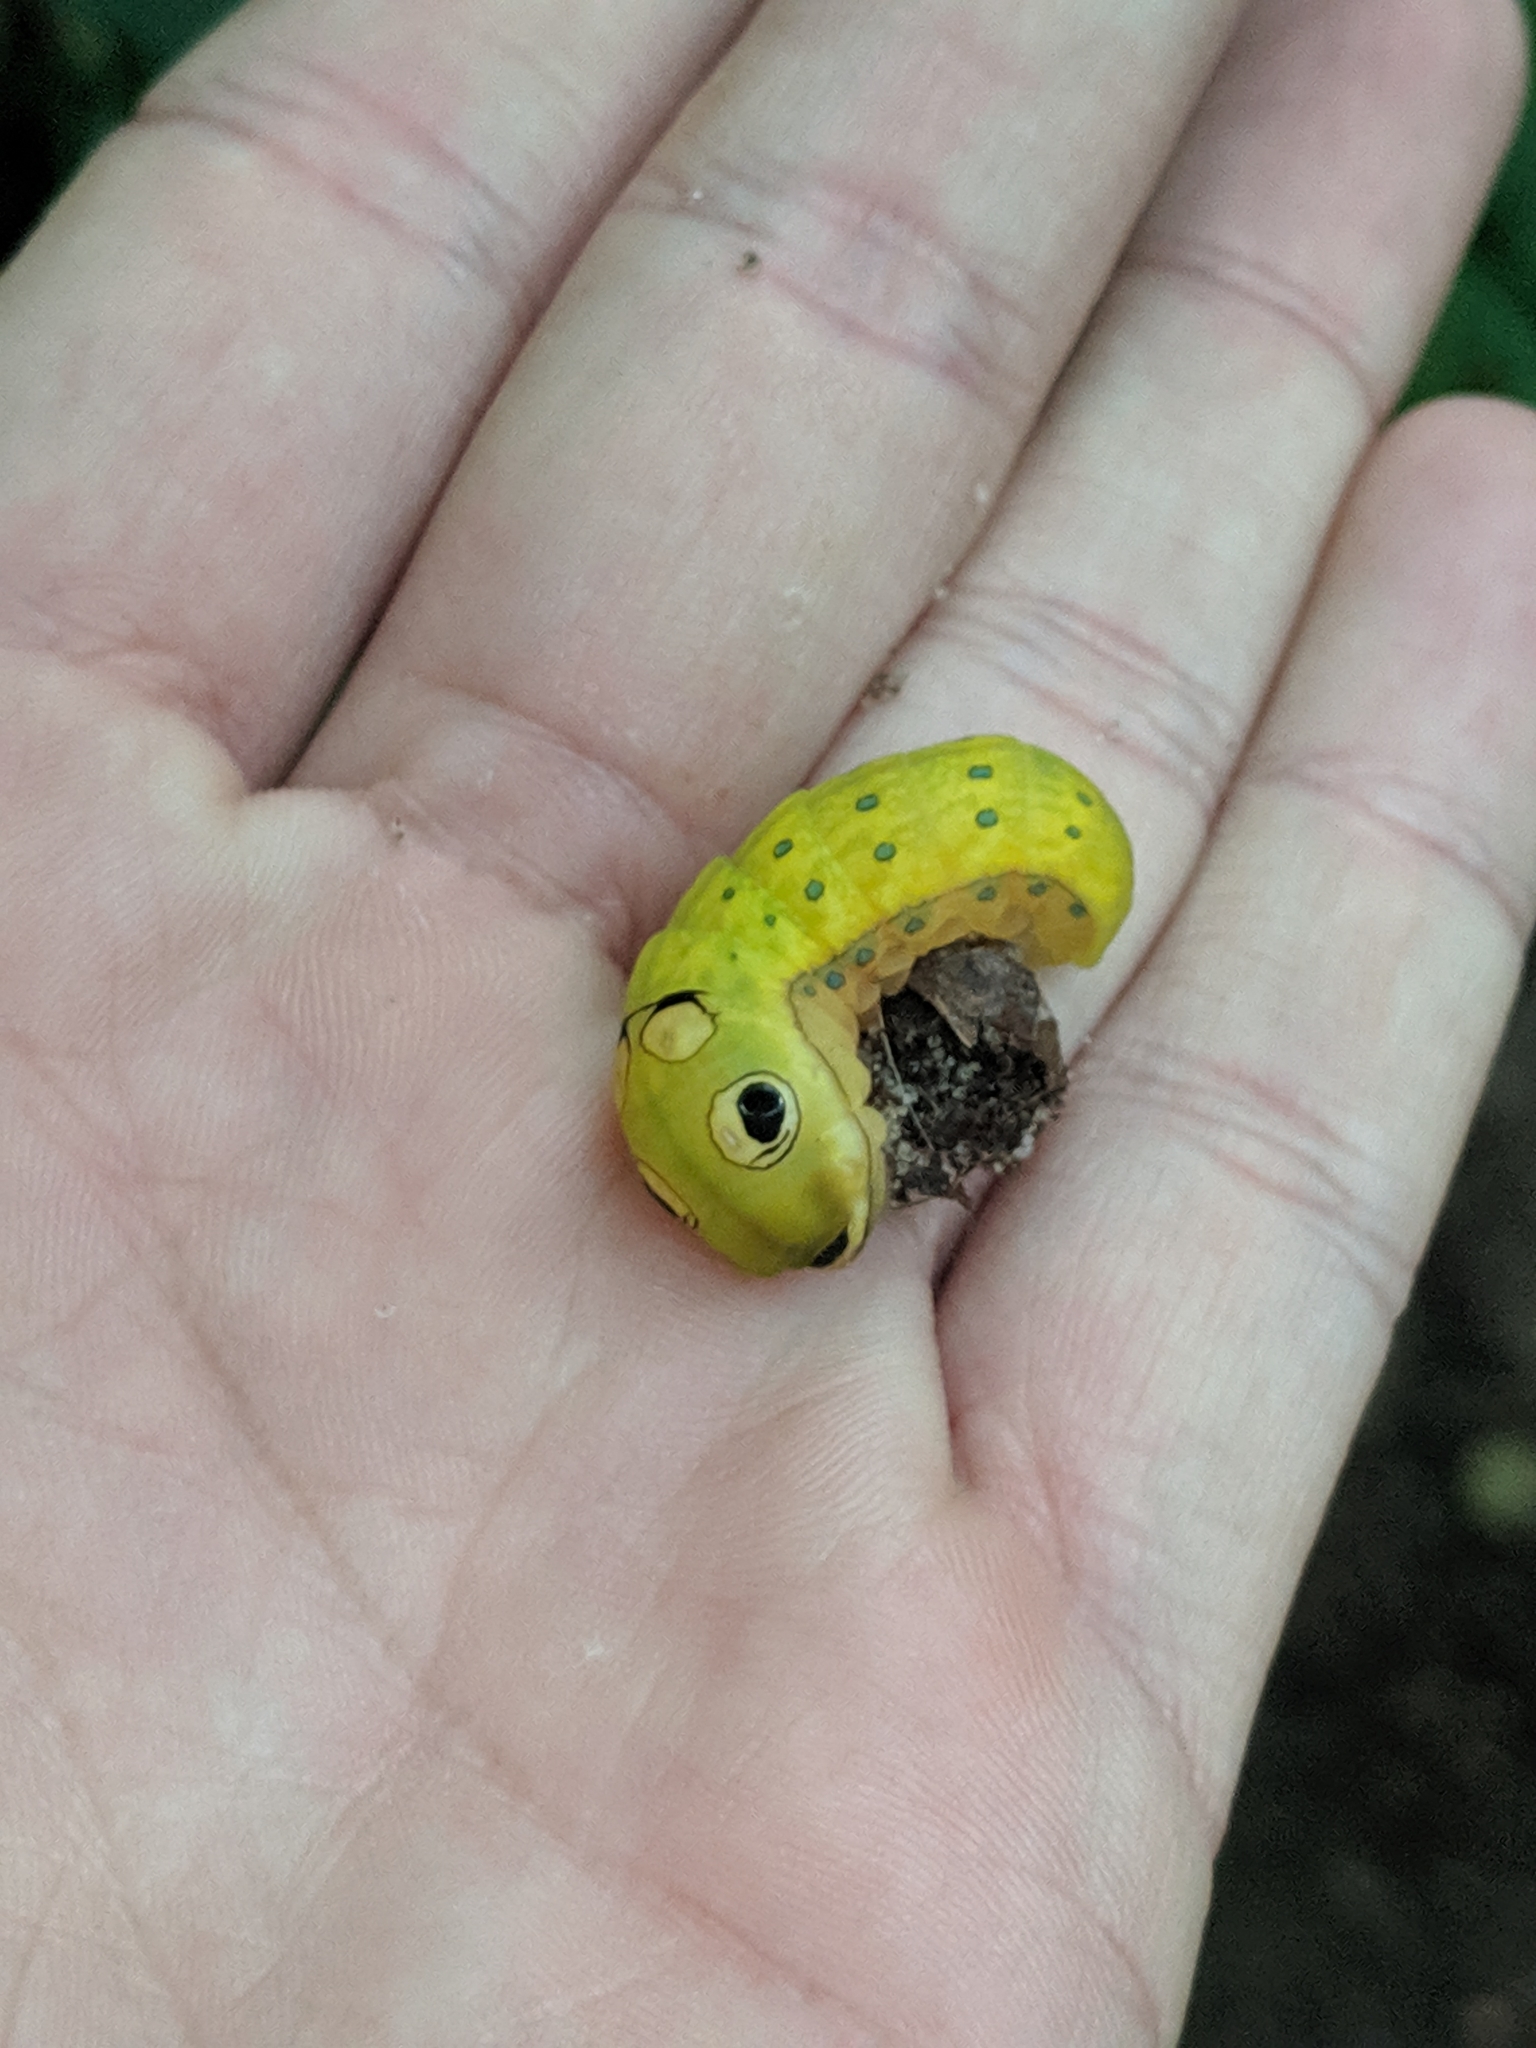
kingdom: Animalia
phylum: Arthropoda
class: Insecta
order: Lepidoptera
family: Papilionidae
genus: Papilio
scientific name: Papilio troilus
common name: Spicebush swallowtail
